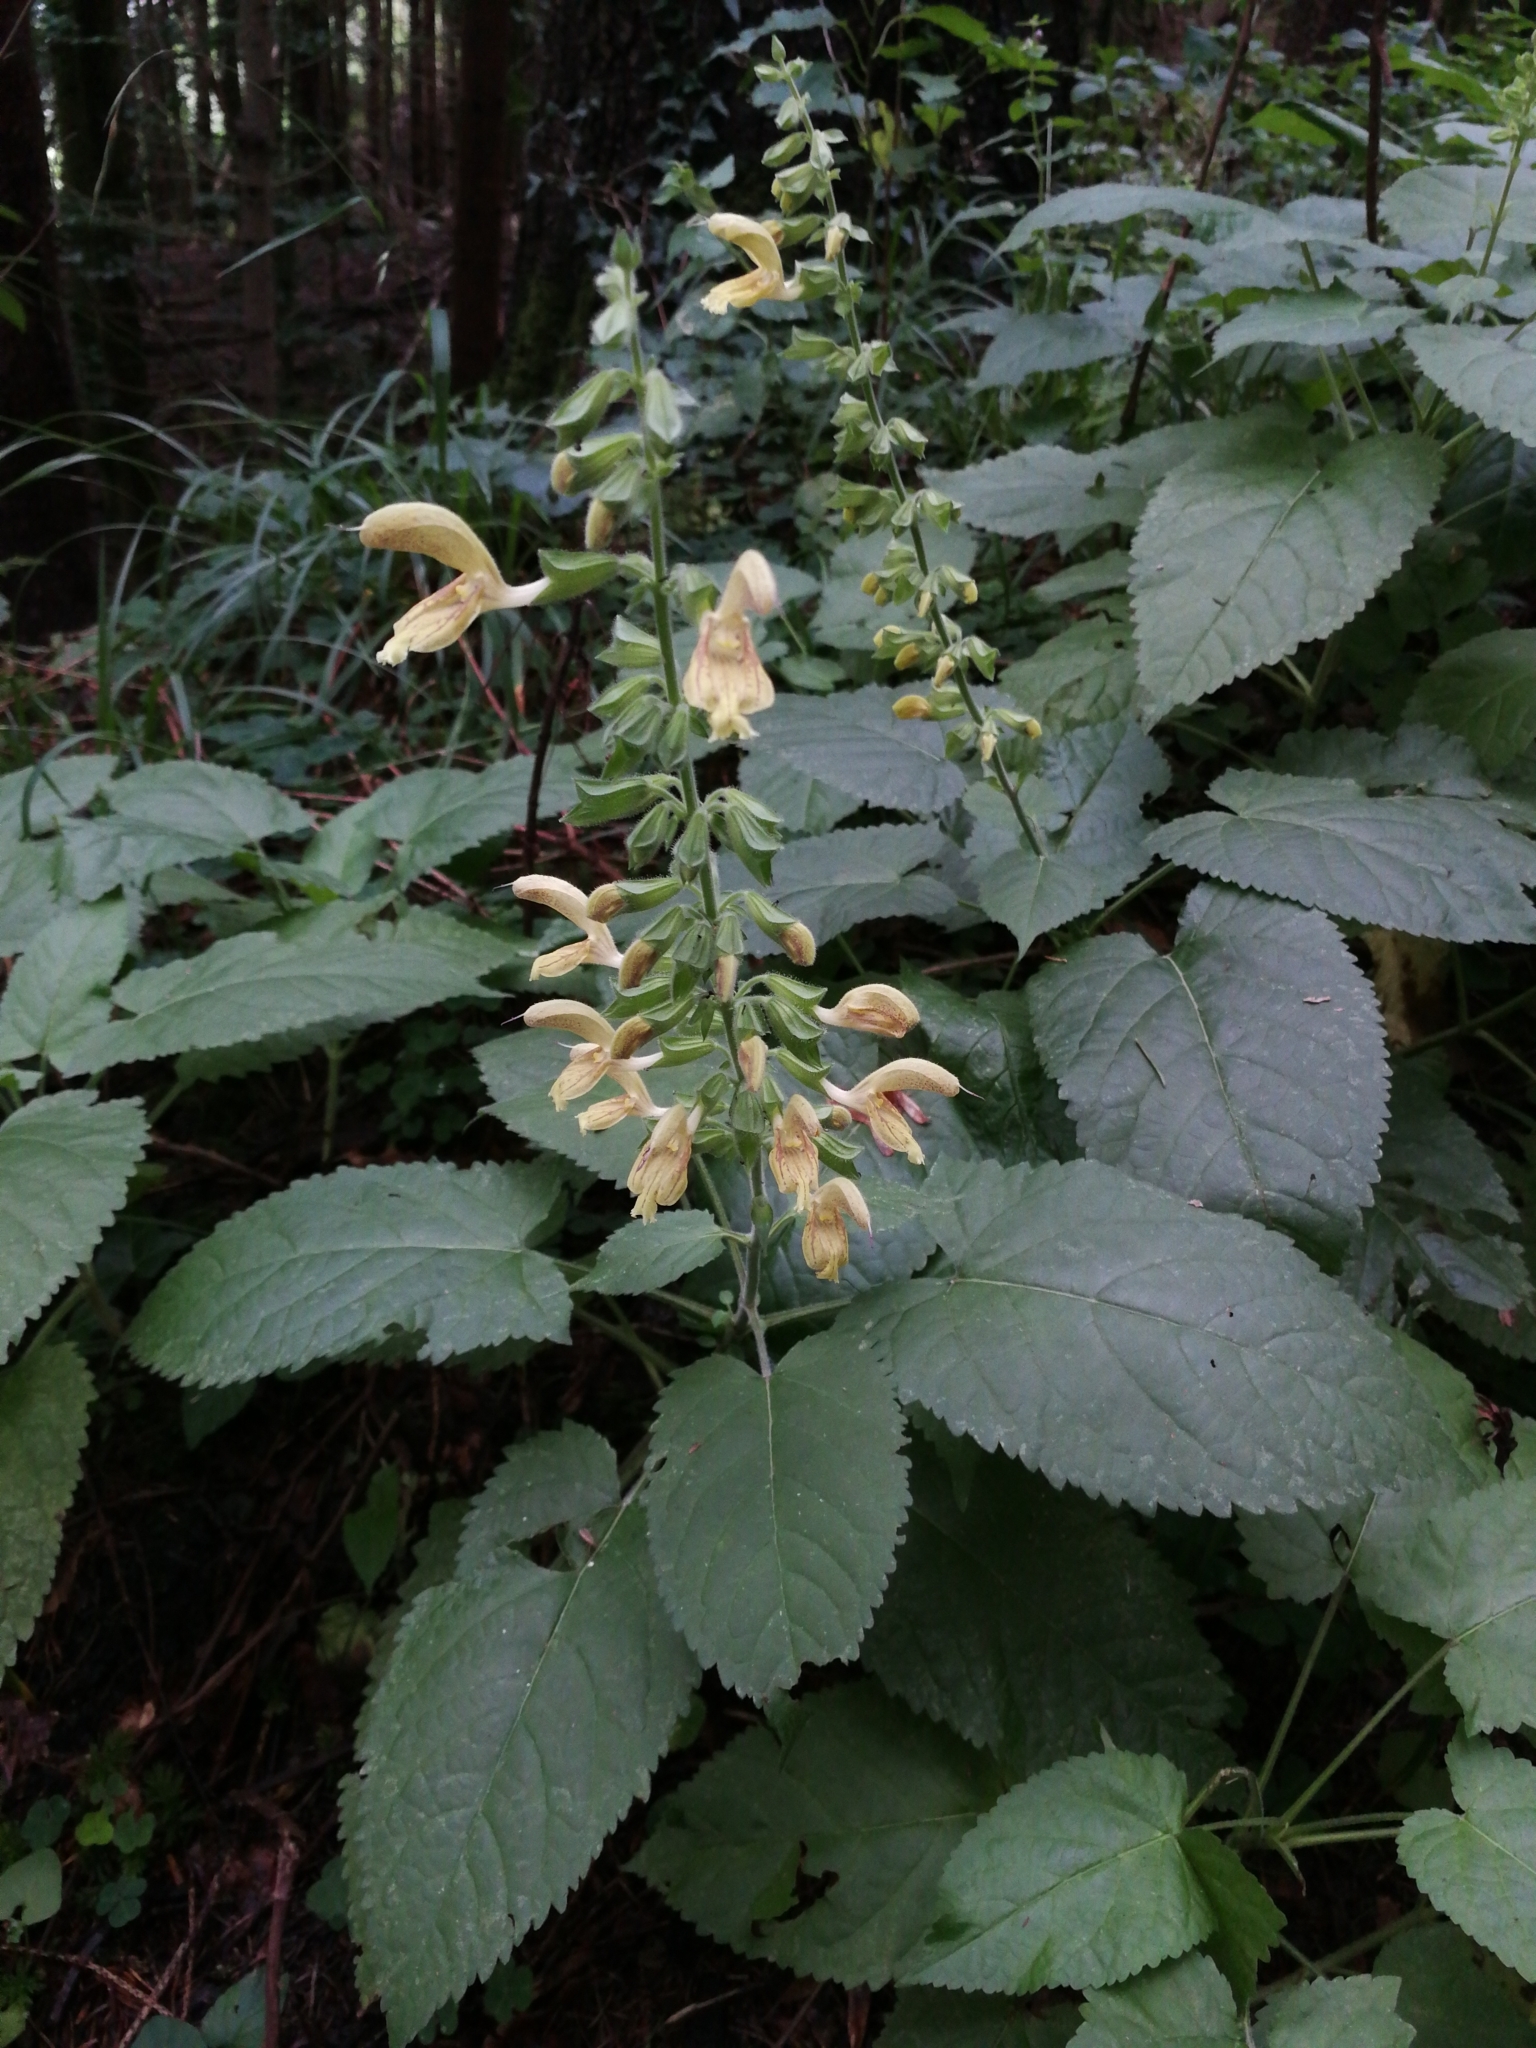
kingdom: Plantae
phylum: Tracheophyta
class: Magnoliopsida
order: Lamiales
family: Lamiaceae
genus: Salvia
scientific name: Salvia glutinosa
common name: Sticky clary
